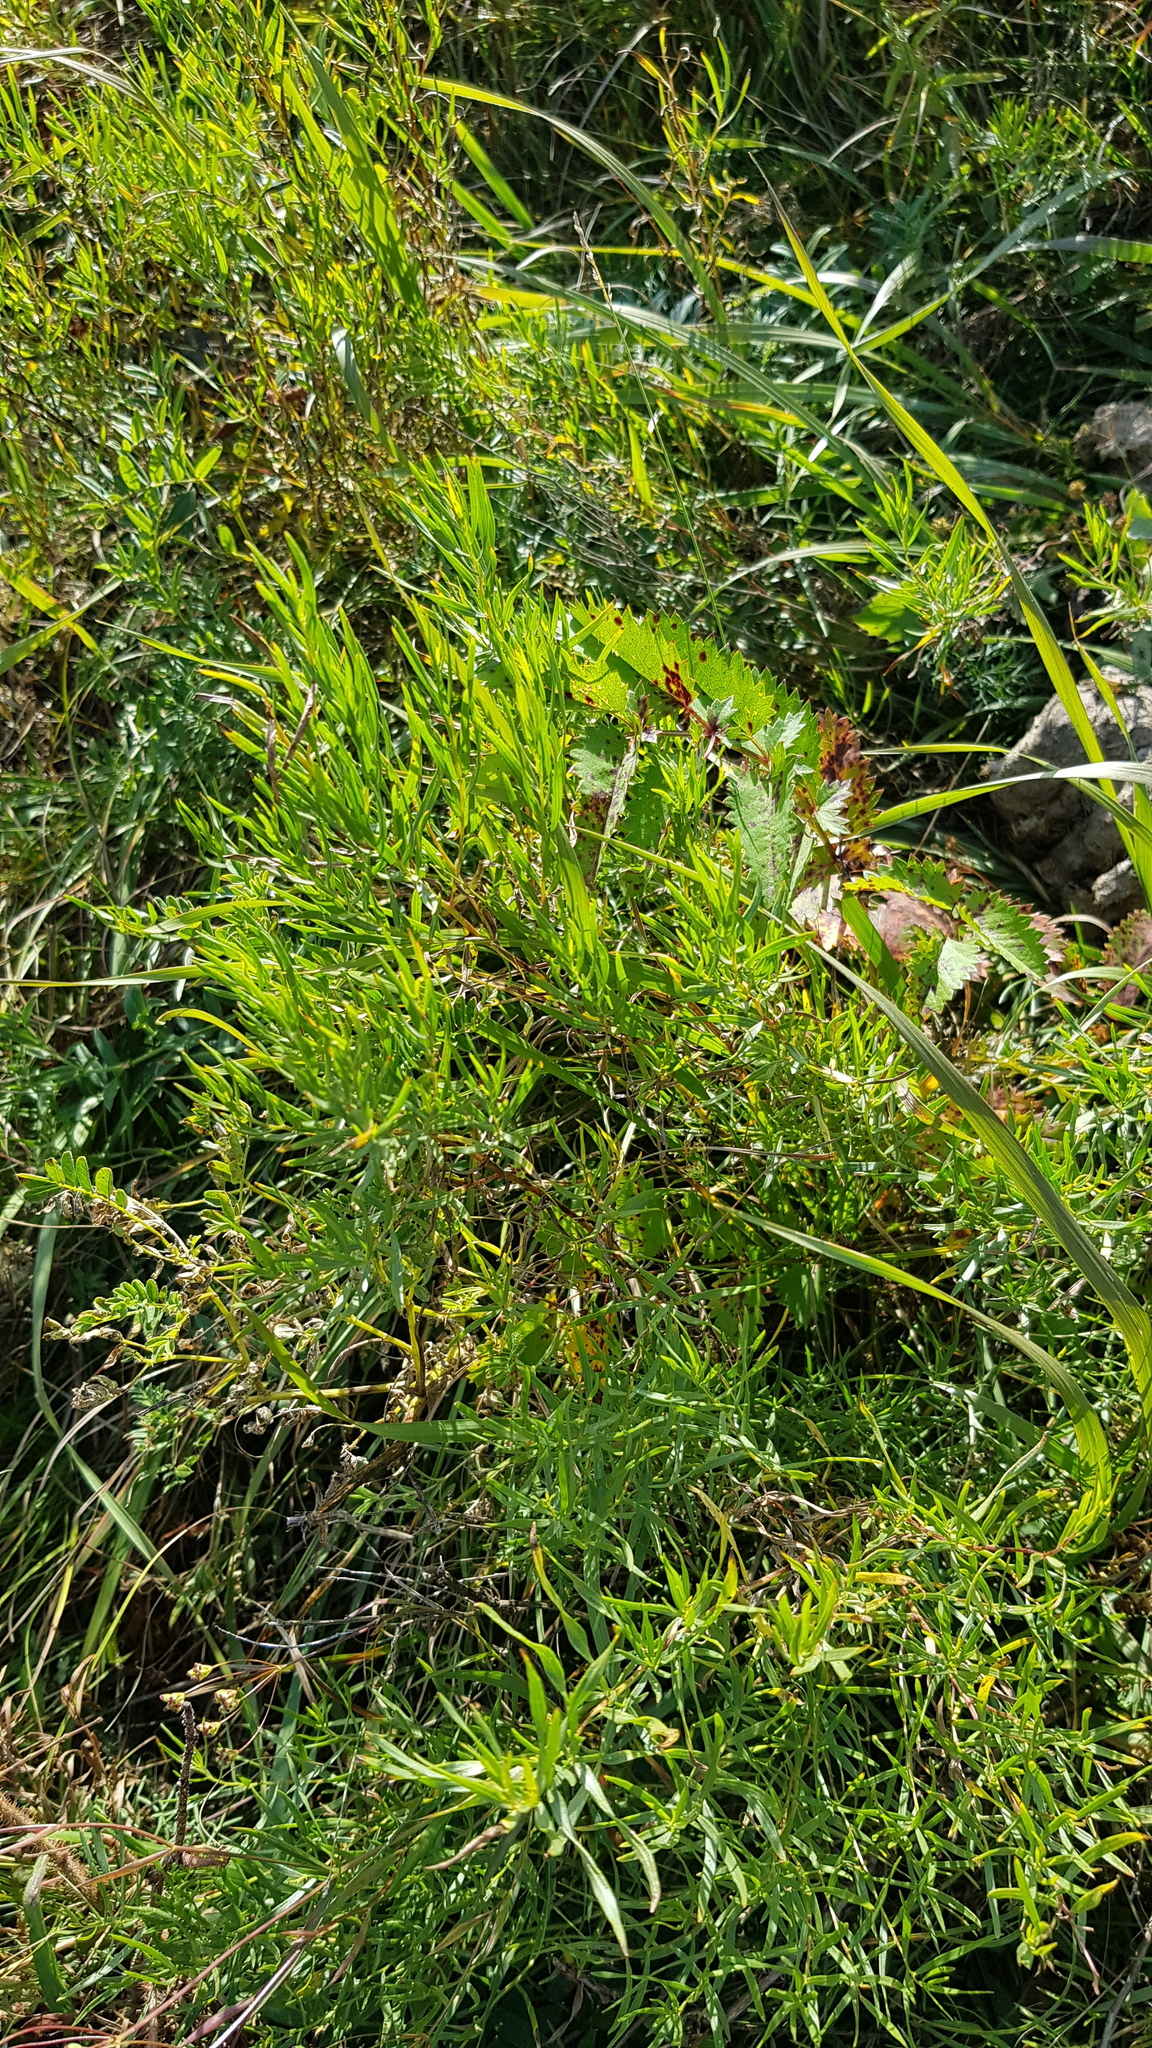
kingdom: Plantae
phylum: Tracheophyta
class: Magnoliopsida
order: Asterales
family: Asteraceae
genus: Artemisia
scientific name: Artemisia dracunculus
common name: Tarragon
